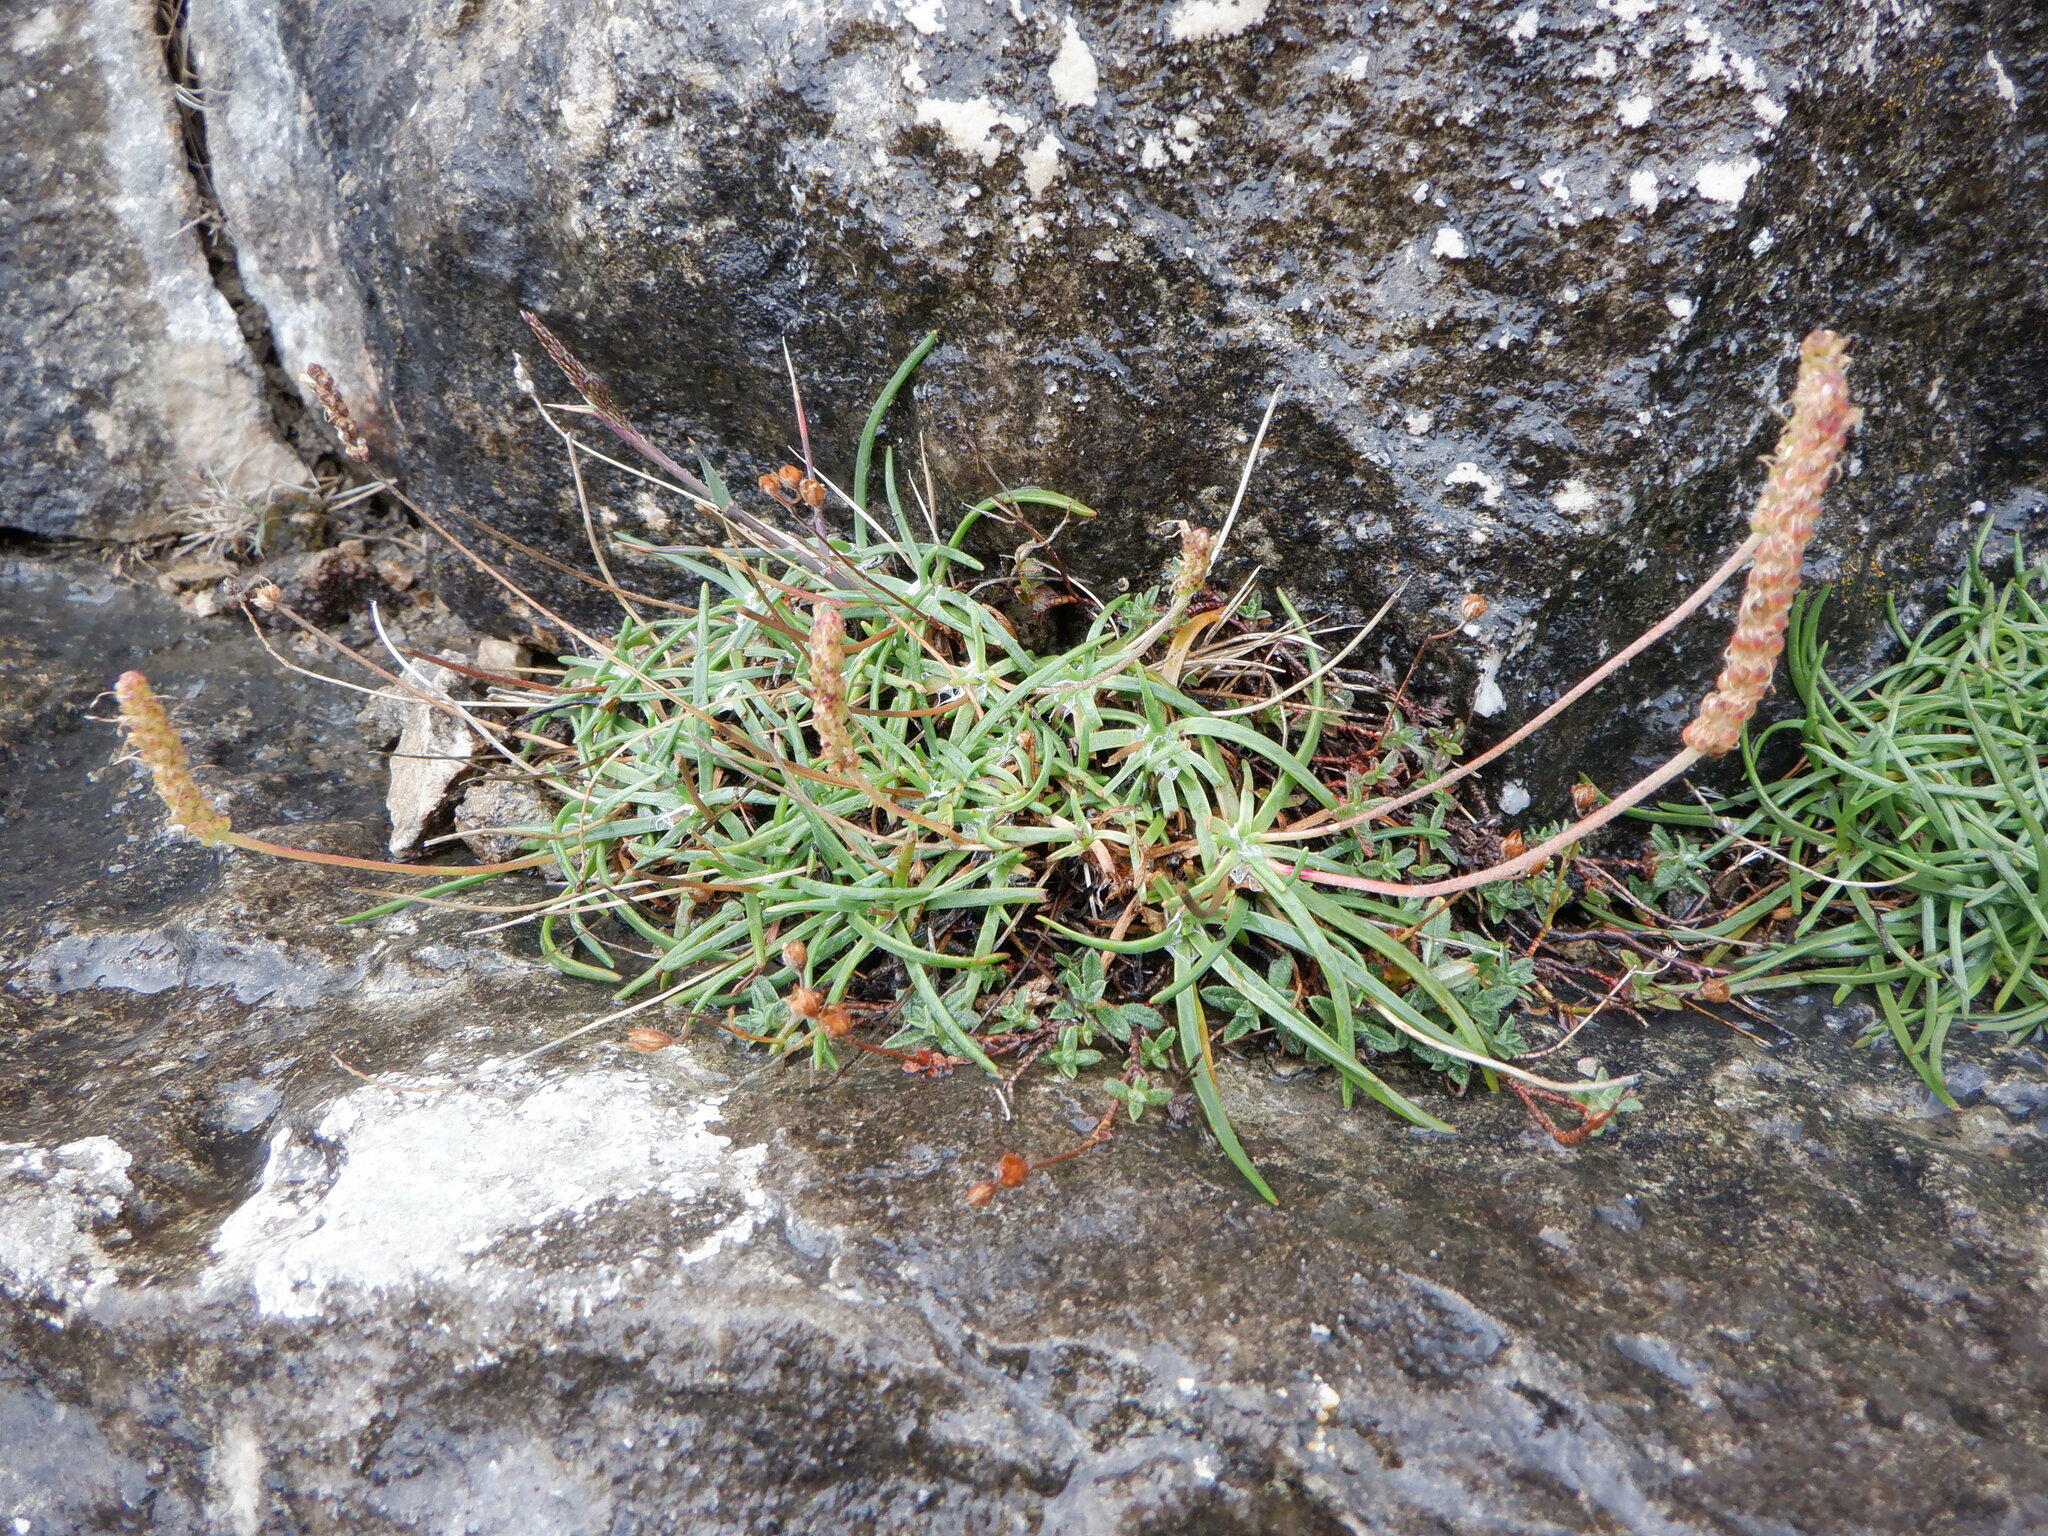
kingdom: Plantae
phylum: Tracheophyta
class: Magnoliopsida
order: Lamiales
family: Plantaginaceae
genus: Plantago
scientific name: Plantago maritima
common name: Sea plantain
